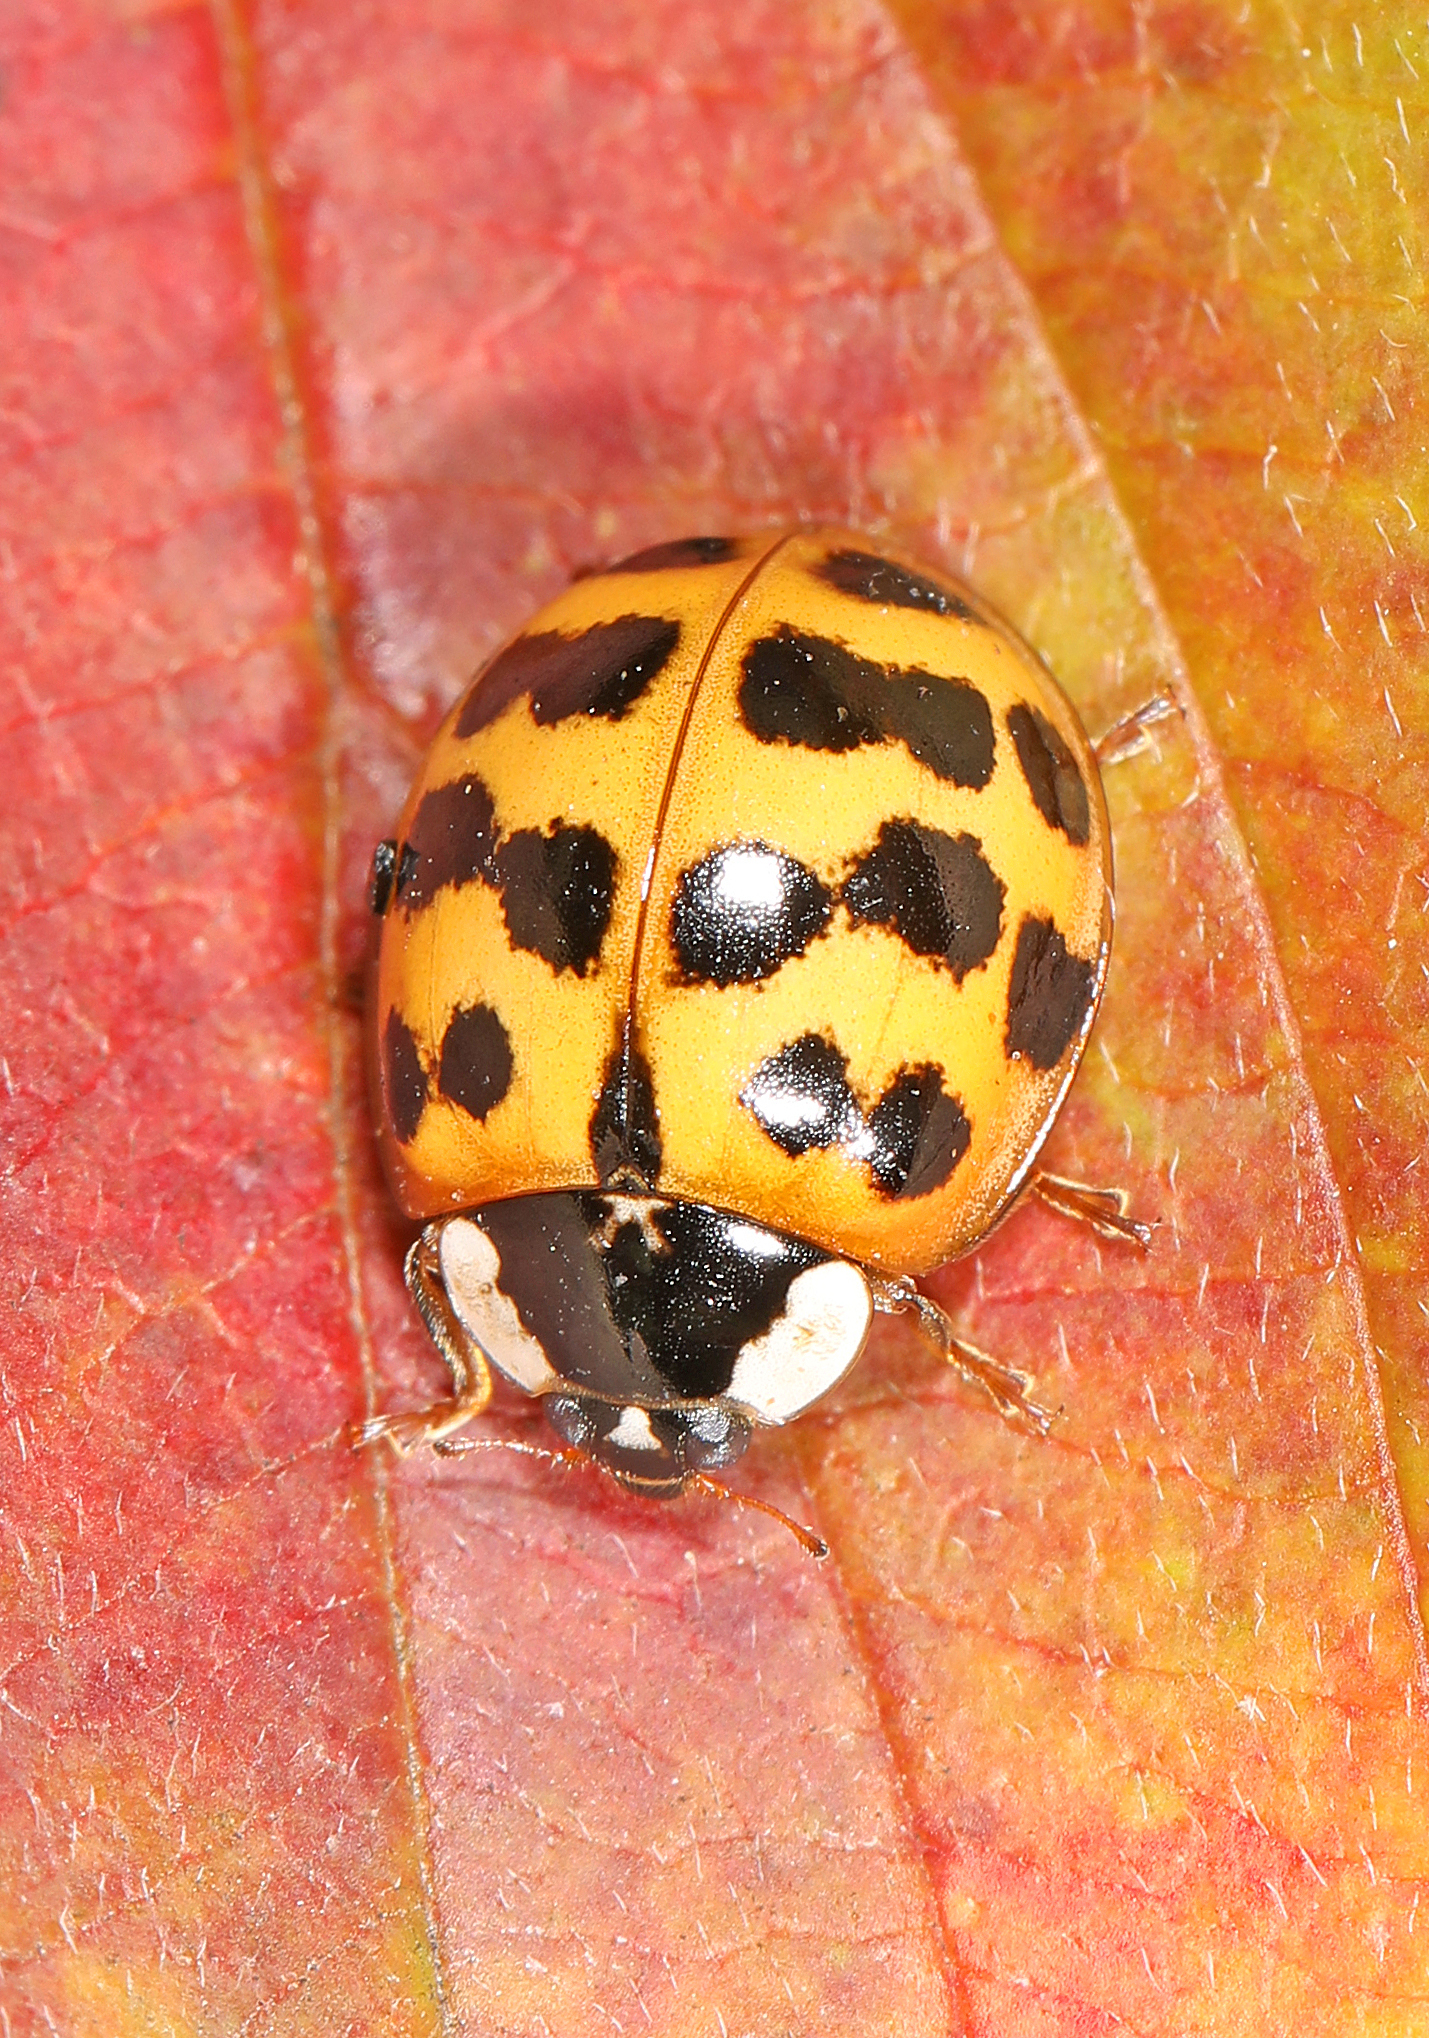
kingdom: Animalia
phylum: Arthropoda
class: Insecta
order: Coleoptera
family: Coccinellidae
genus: Harmonia
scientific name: Harmonia axyridis
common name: Harlequin ladybird
